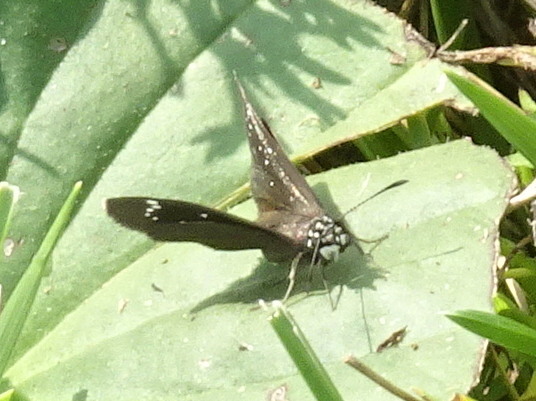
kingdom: Animalia
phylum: Arthropoda
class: Insecta
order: Lepidoptera
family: Hesperiidae
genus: Pholisora
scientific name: Pholisora catullus
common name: Common sootywing
